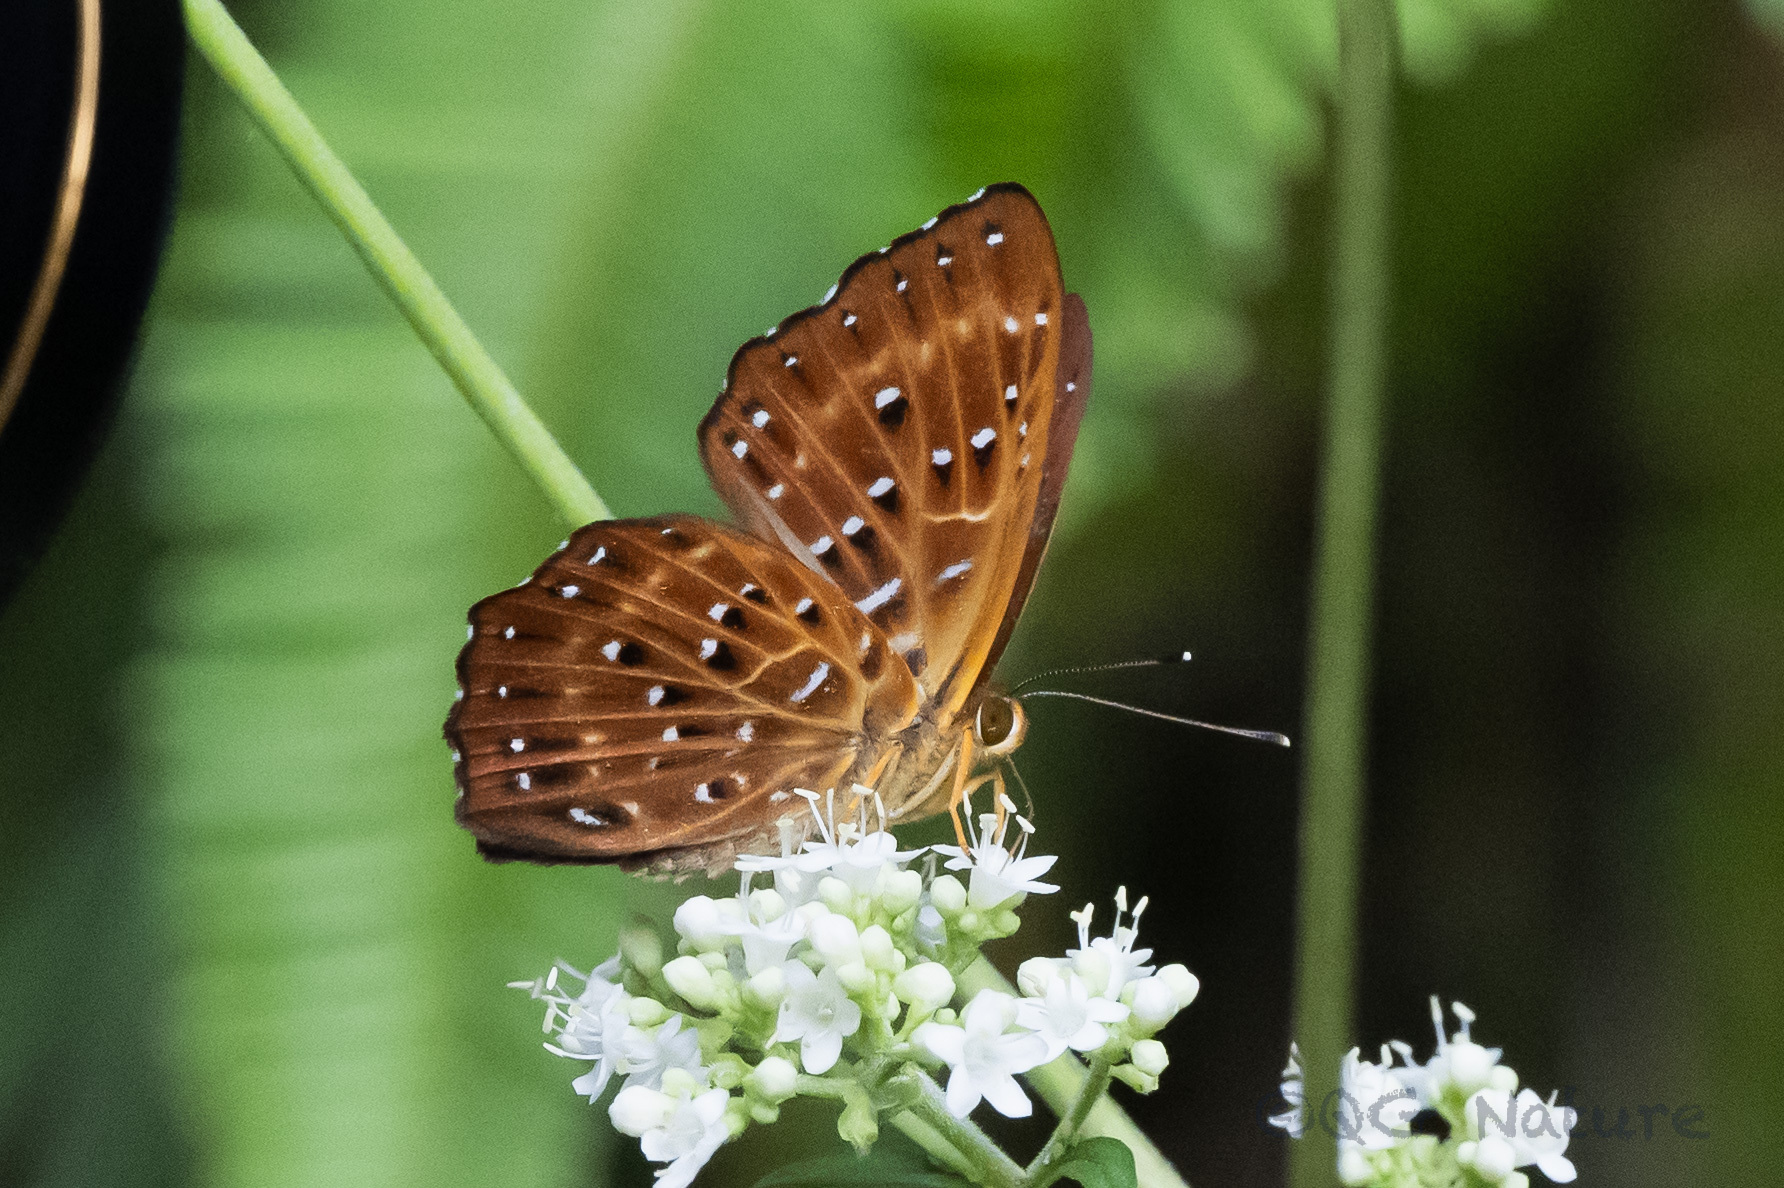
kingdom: Animalia
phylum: Arthropoda
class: Insecta
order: Lepidoptera
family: Riodinidae
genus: Zemeros
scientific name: Zemeros flegyas
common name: Punchinello
